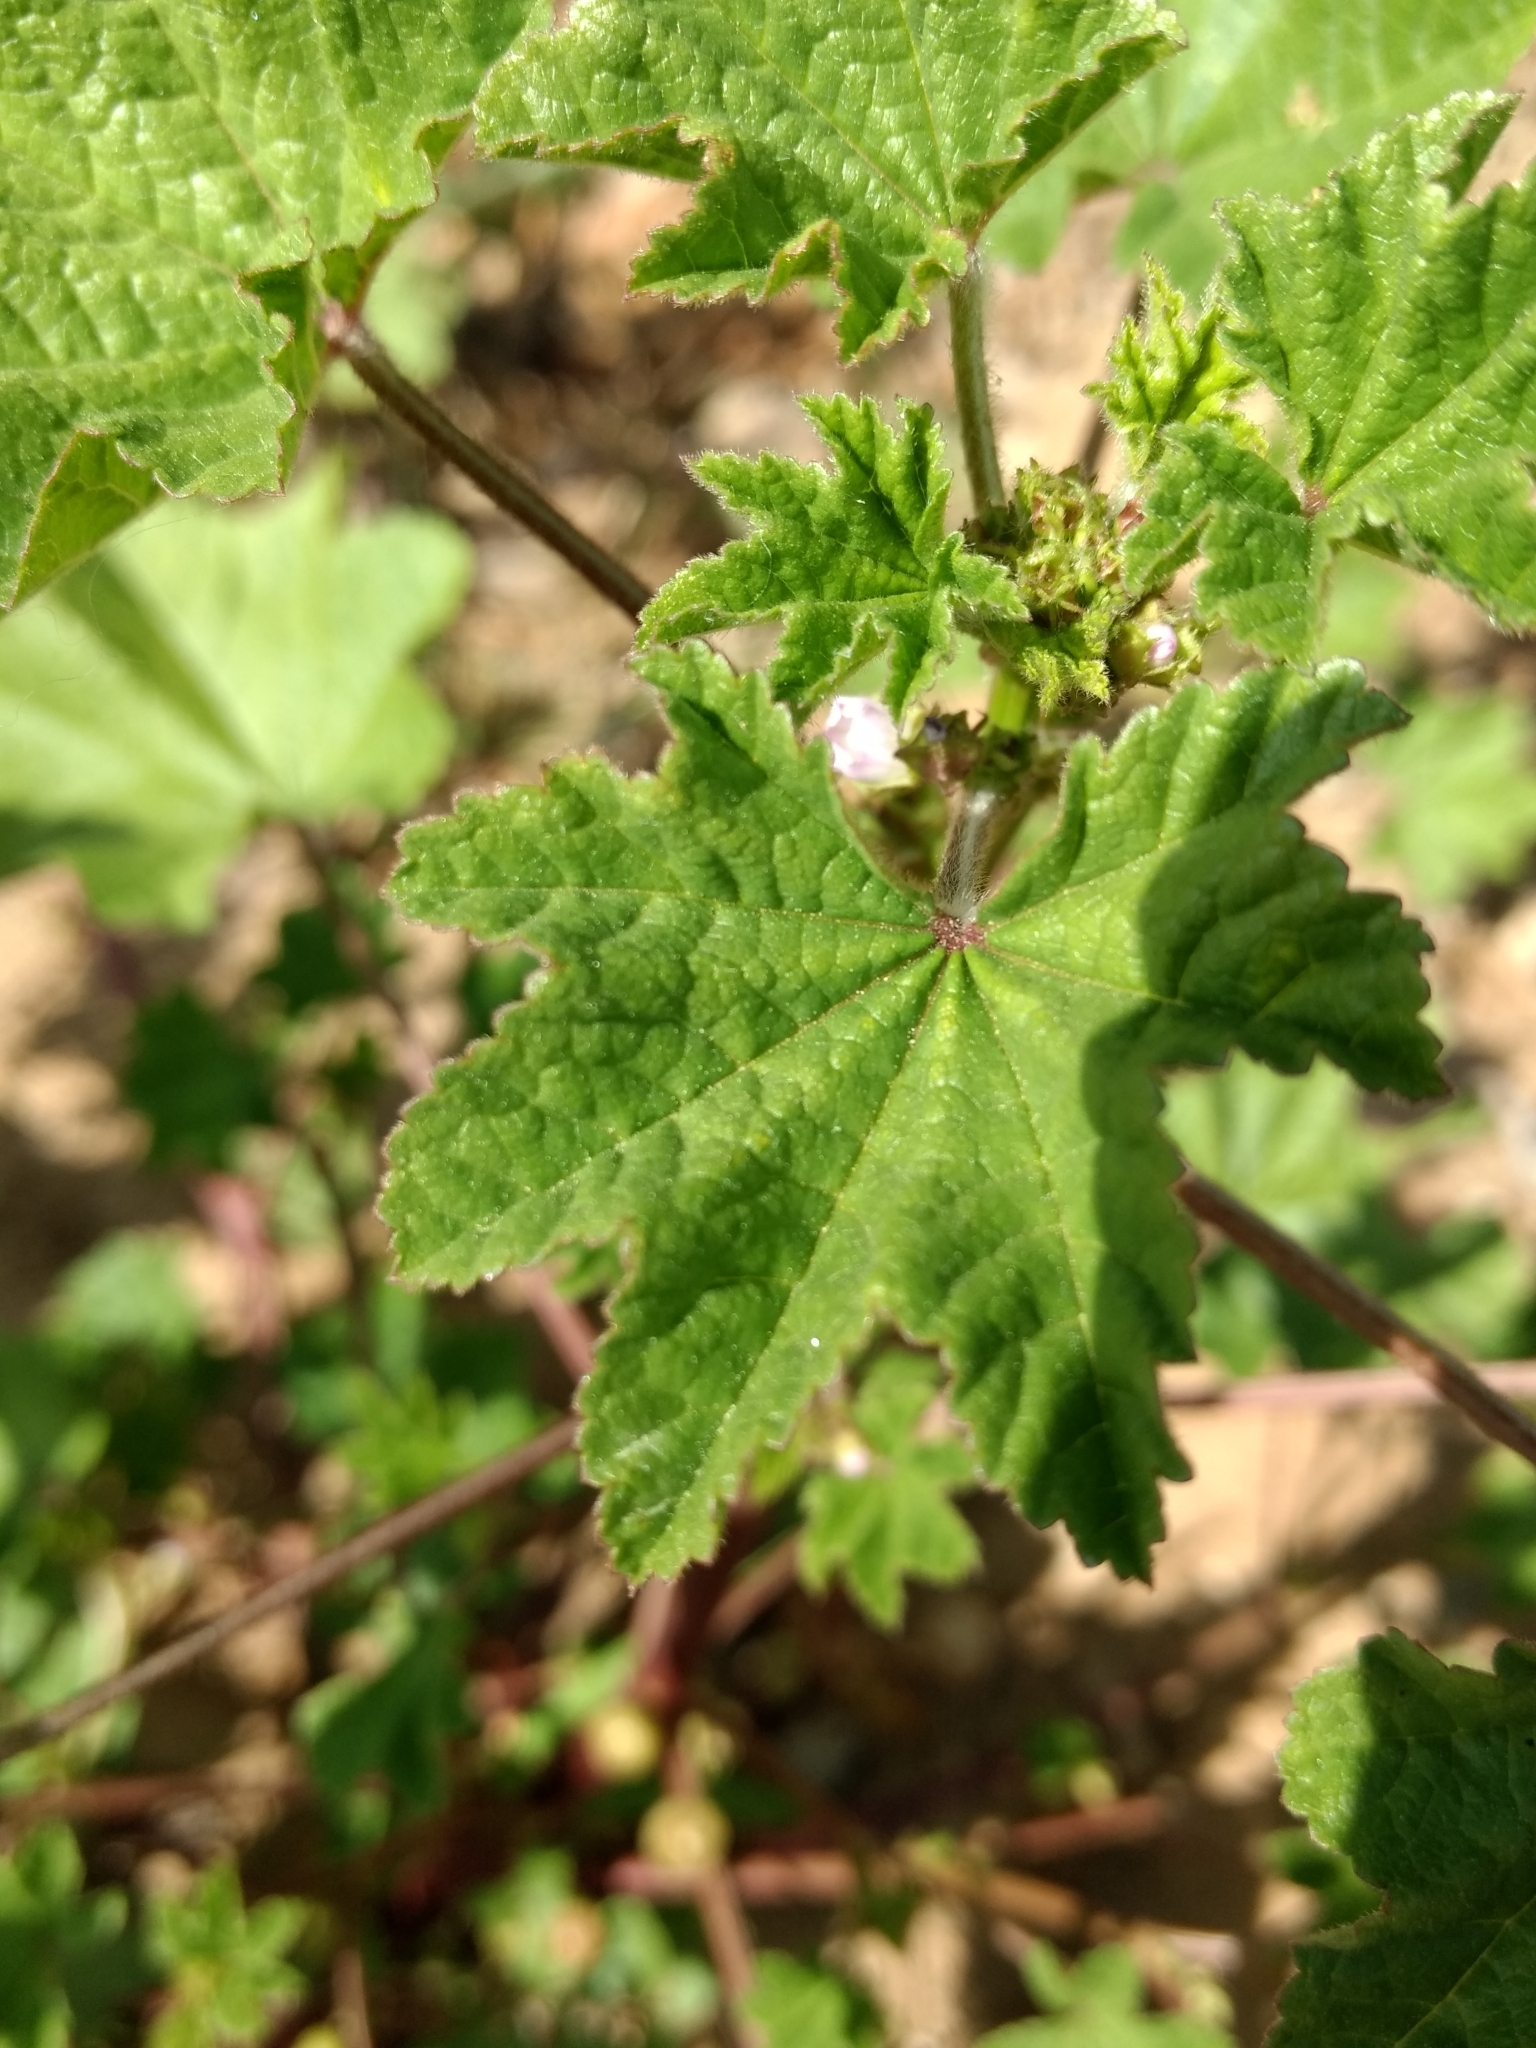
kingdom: Plantae
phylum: Tracheophyta
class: Magnoliopsida
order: Malvales
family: Malvaceae
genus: Malva
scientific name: Malva parviflora
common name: Least mallow
